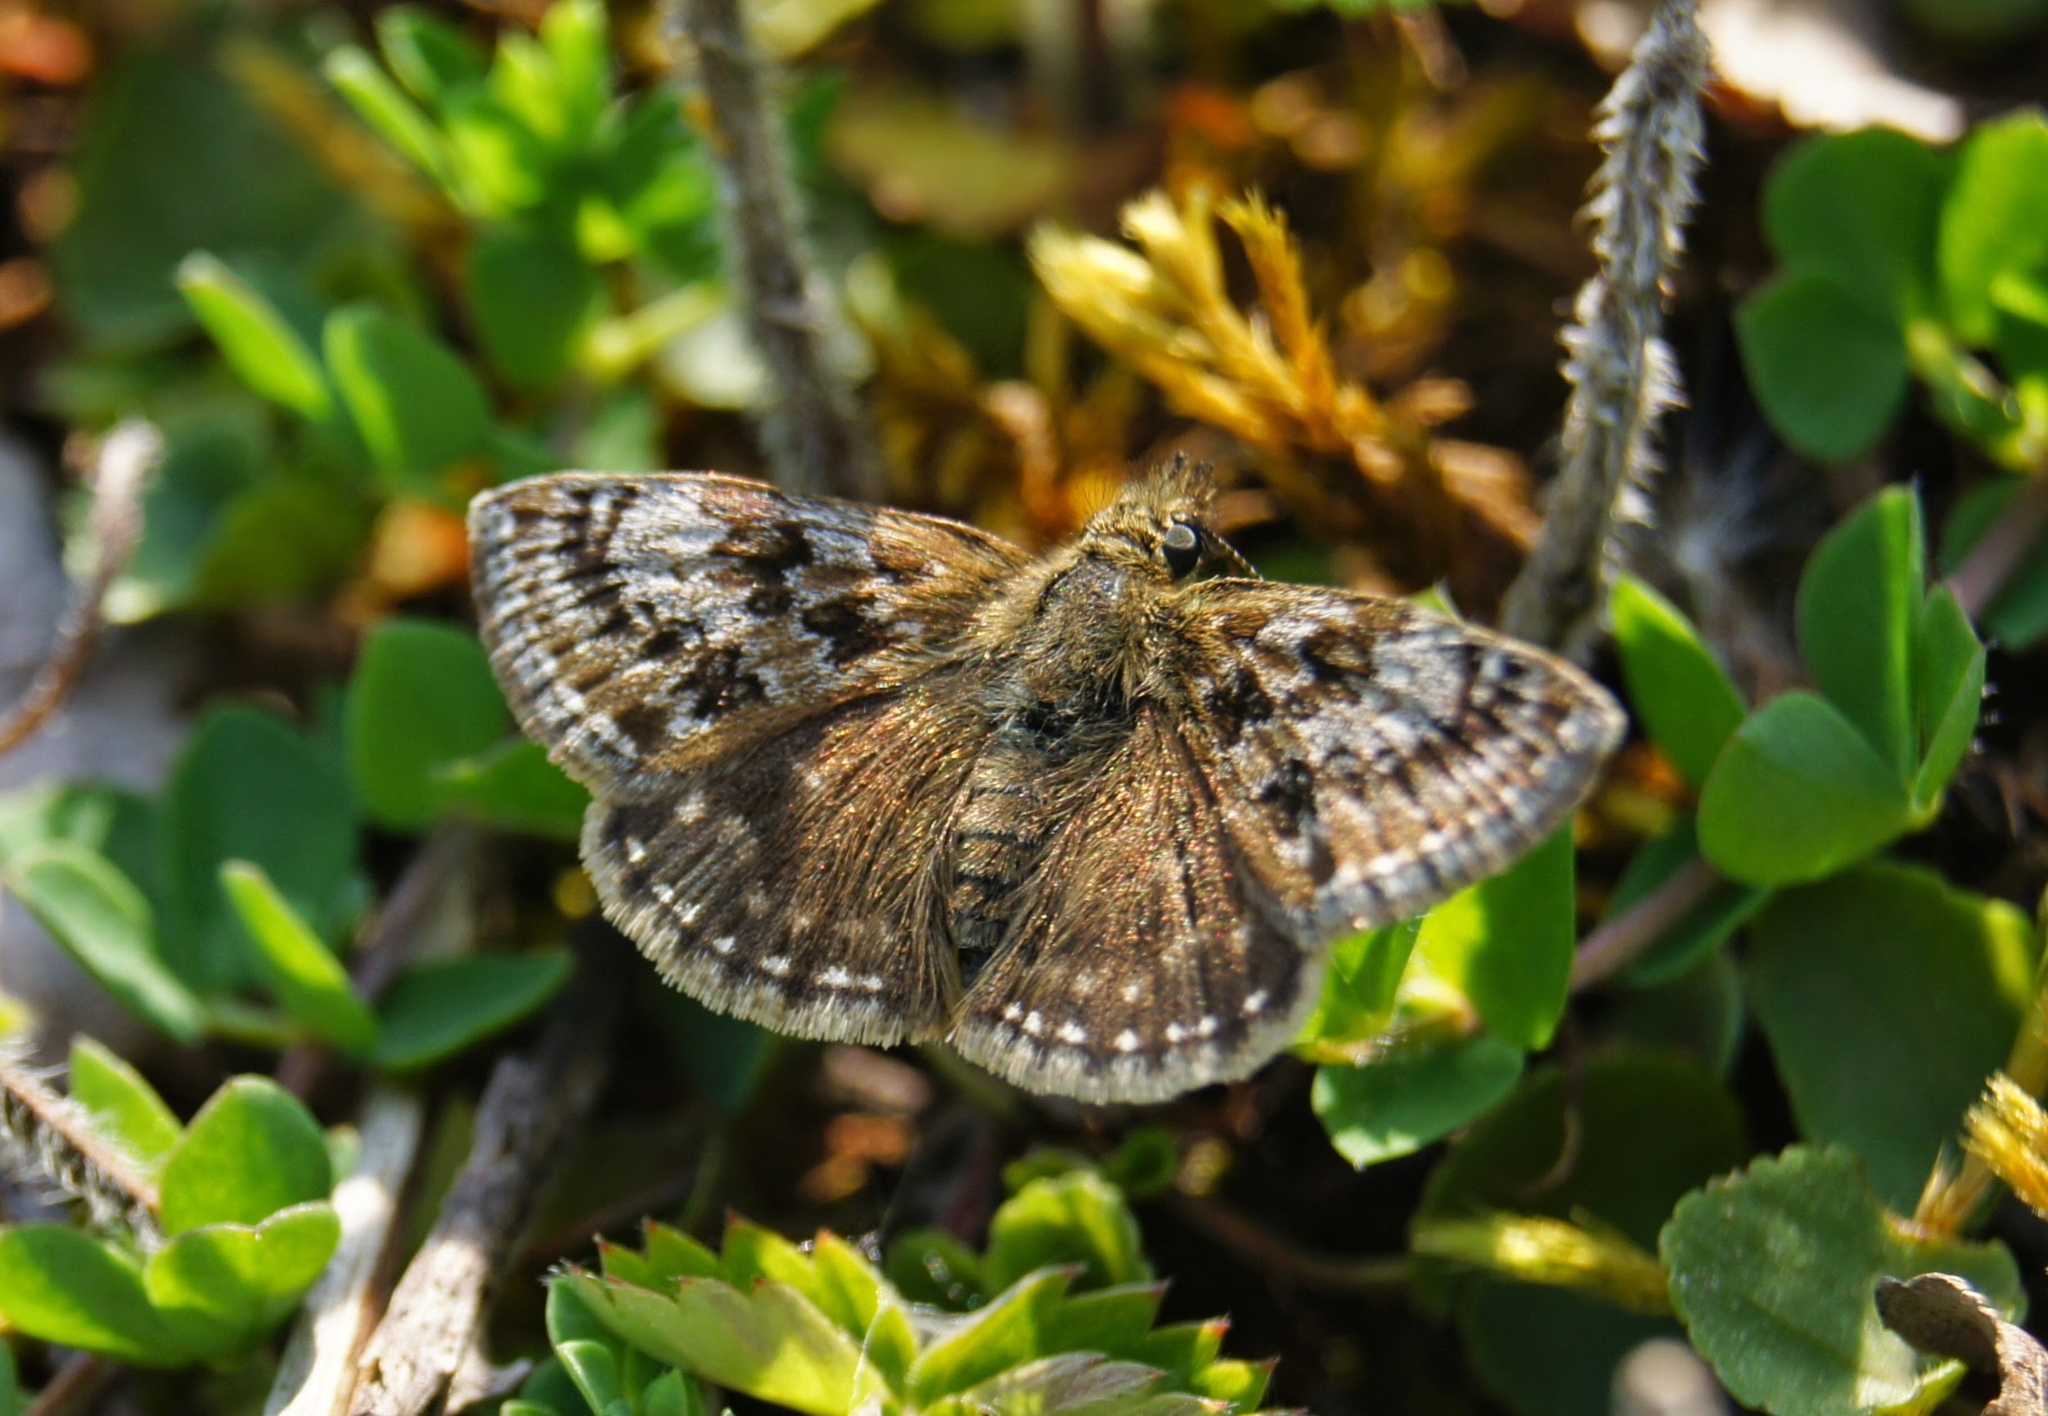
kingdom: Animalia
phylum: Arthropoda
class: Insecta
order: Lepidoptera
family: Hesperiidae
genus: Erynnis
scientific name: Erynnis tages
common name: Dingy skipper
